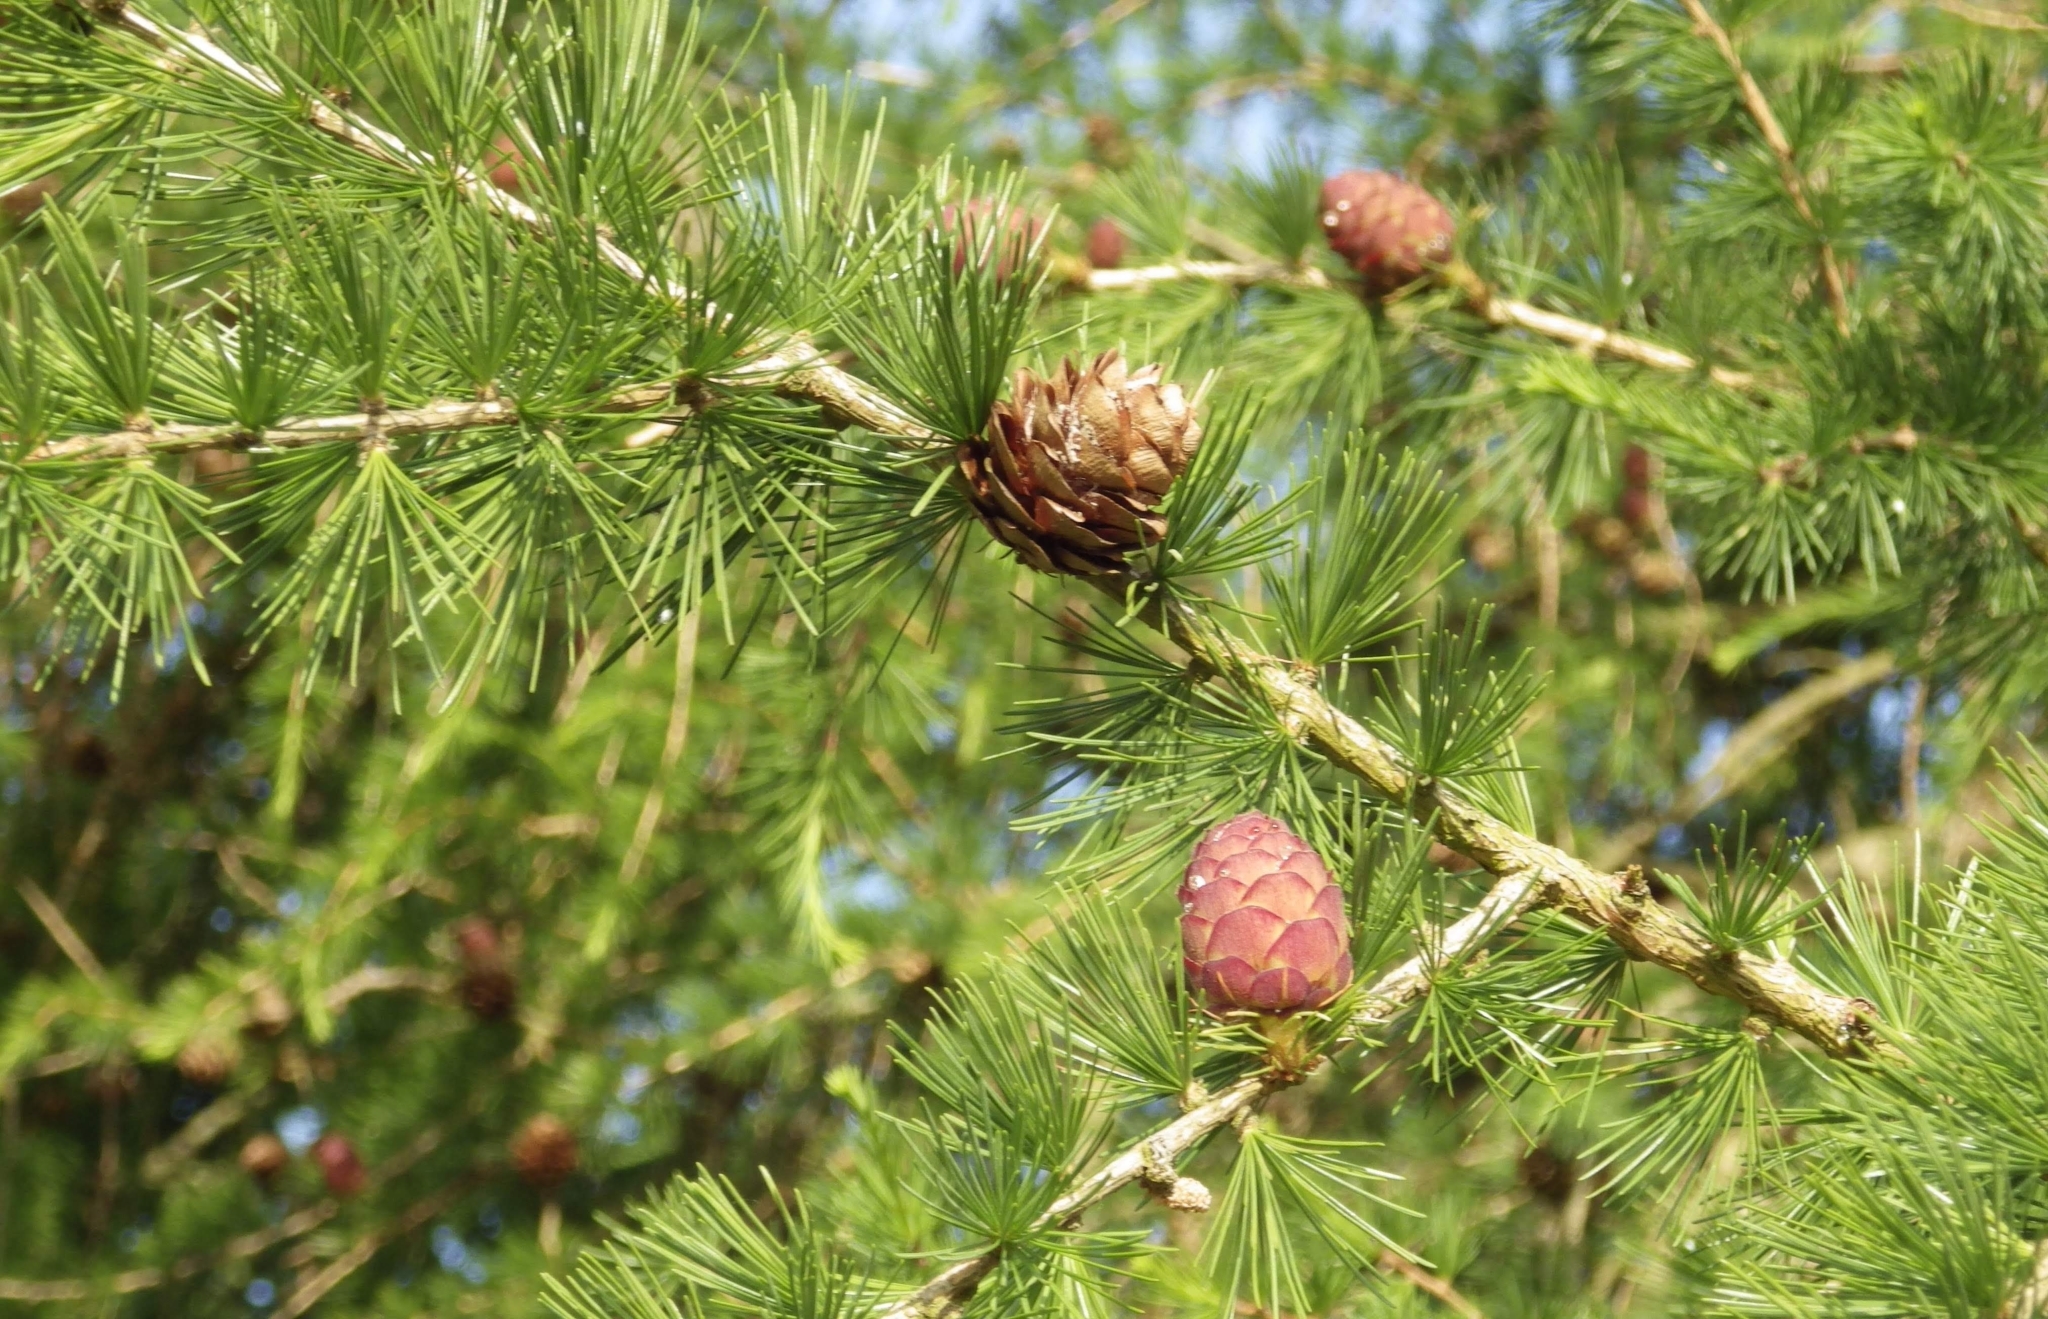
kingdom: Plantae
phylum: Tracheophyta
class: Pinopsida
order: Pinales
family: Pinaceae
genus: Larix
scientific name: Larix decidua
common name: European larch
